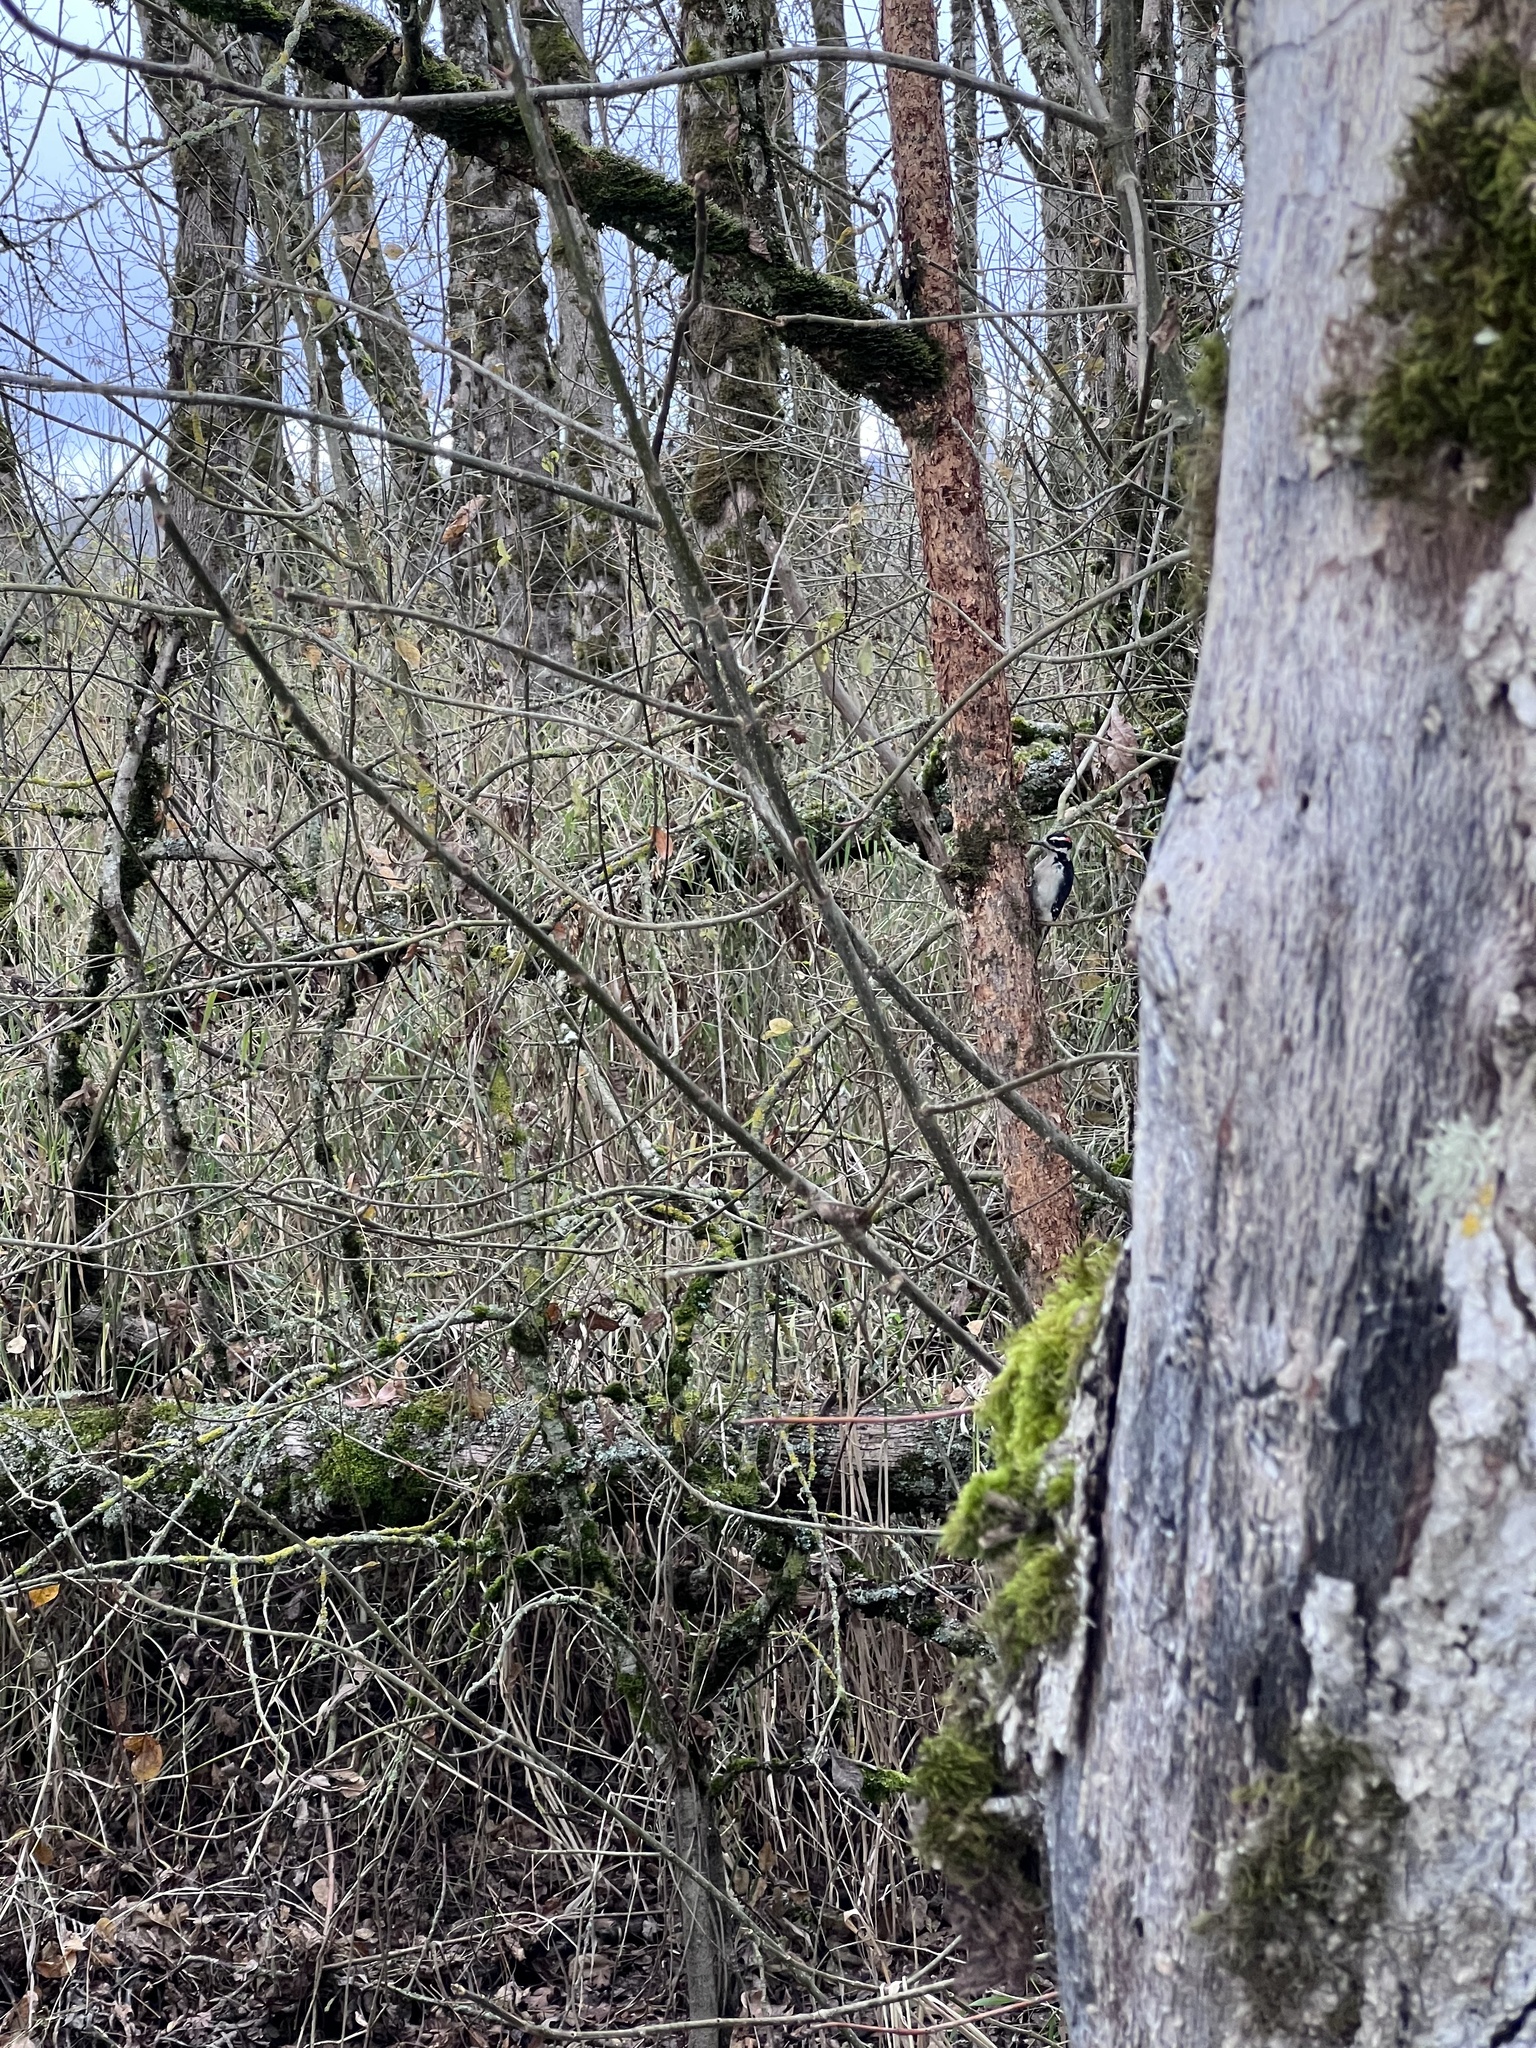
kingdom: Animalia
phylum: Chordata
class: Aves
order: Piciformes
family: Picidae
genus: Leuconotopicus
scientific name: Leuconotopicus villosus
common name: Hairy woodpecker
